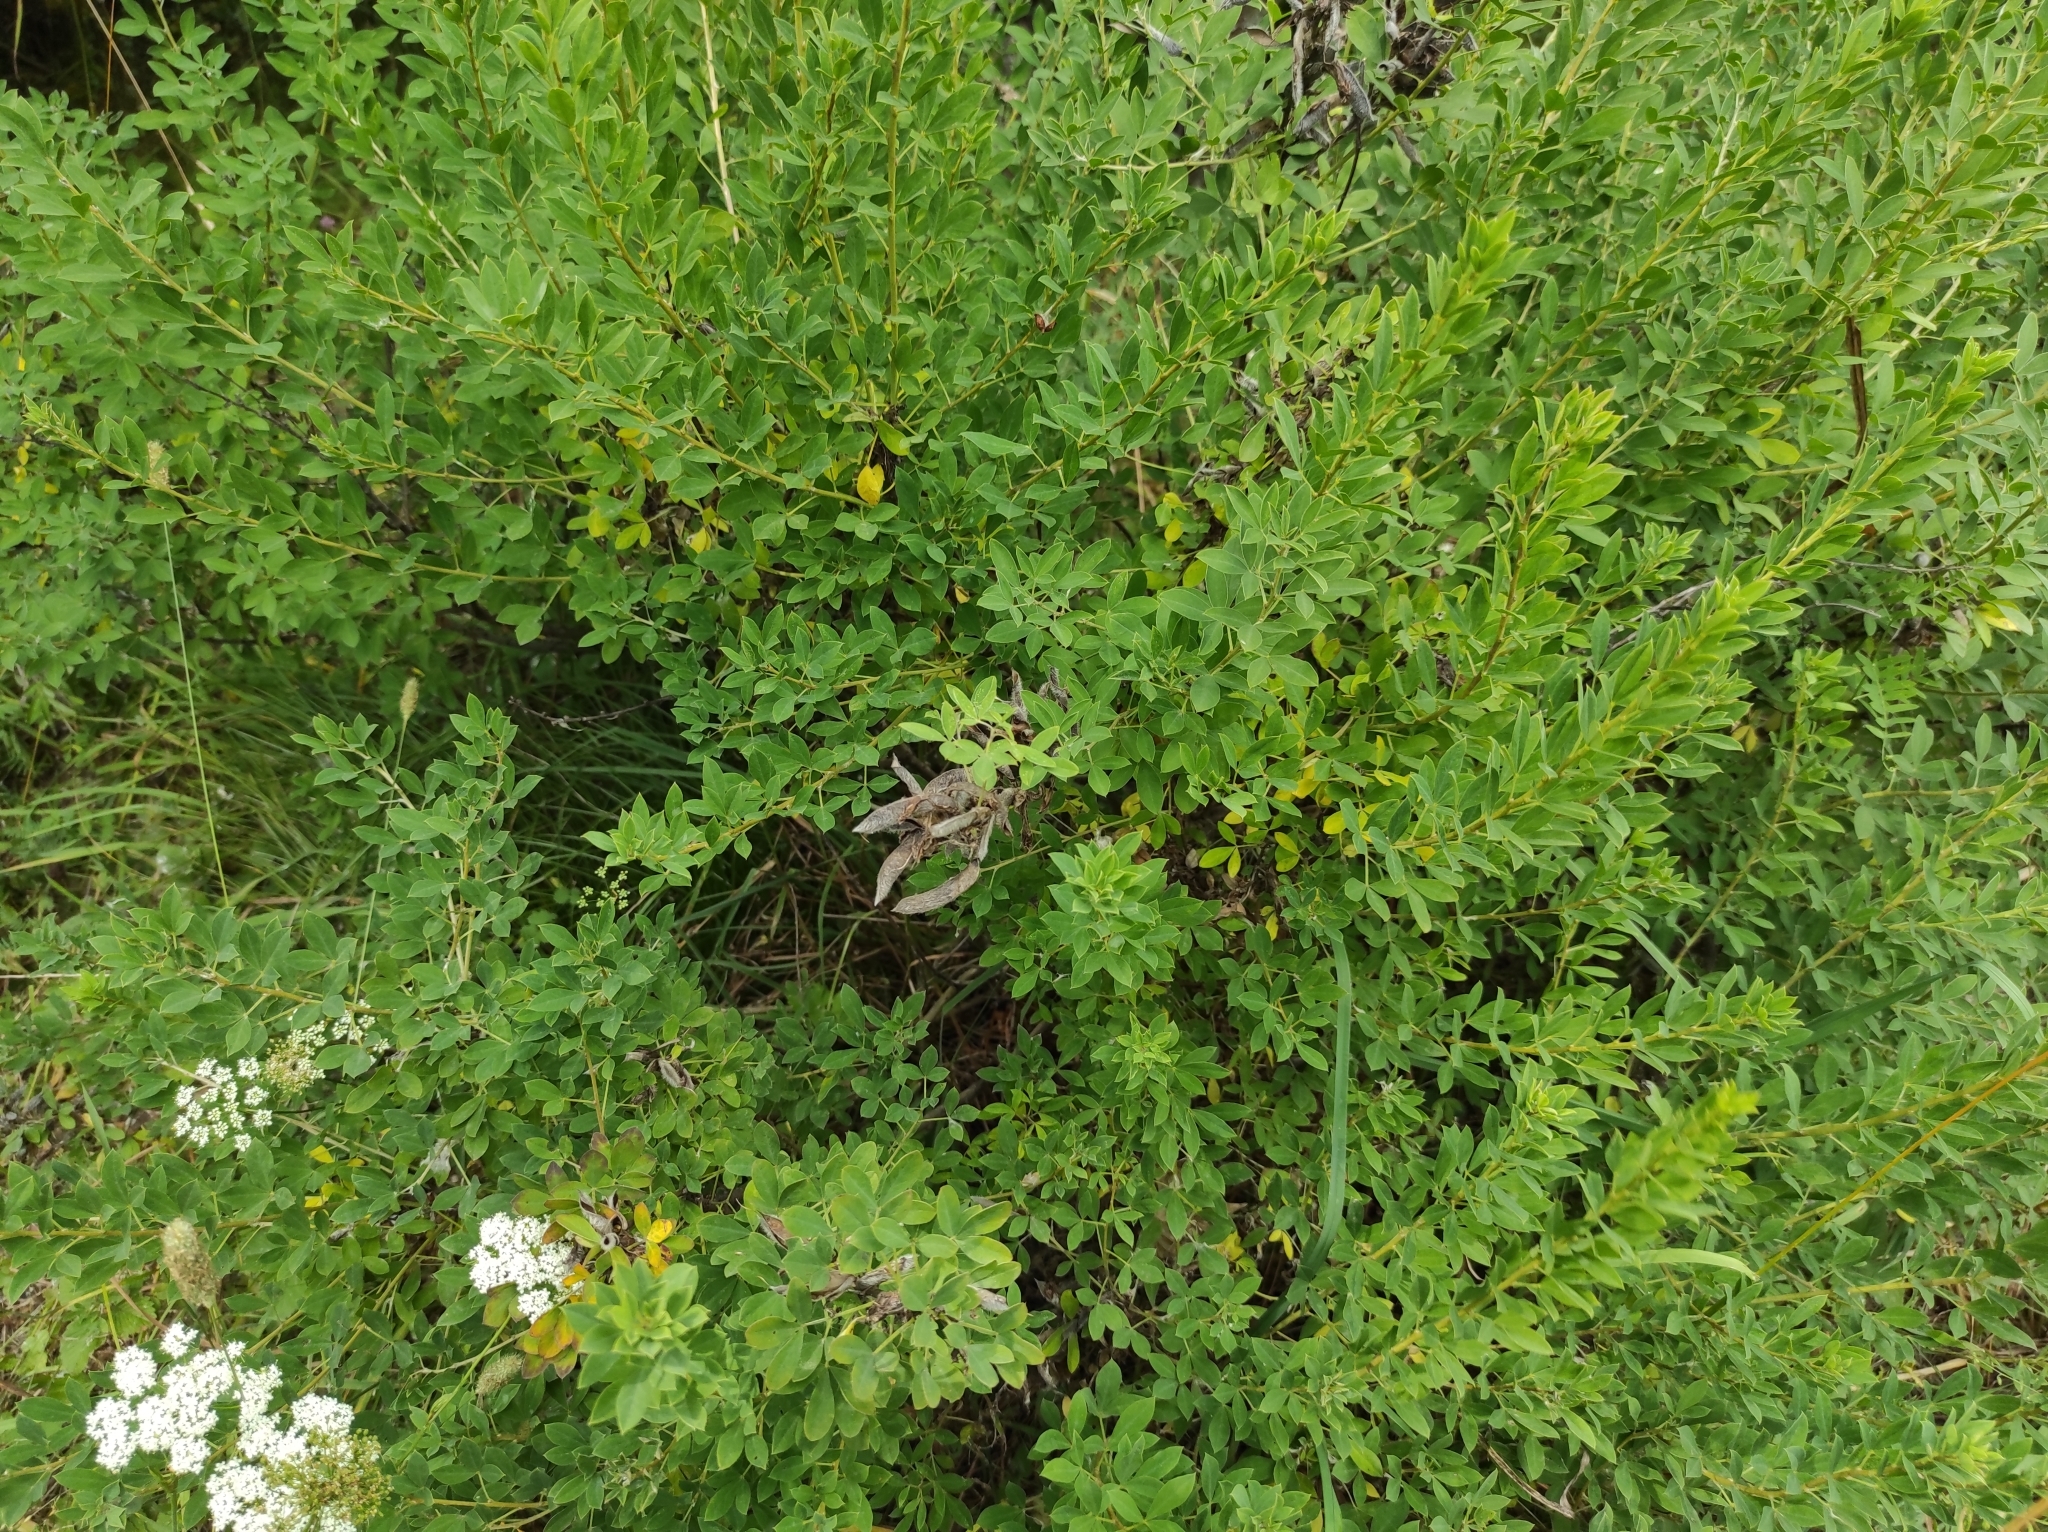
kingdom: Plantae
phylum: Tracheophyta
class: Magnoliopsida
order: Fabales
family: Fabaceae
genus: Chamaecytisus
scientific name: Chamaecytisus ruthenicus
